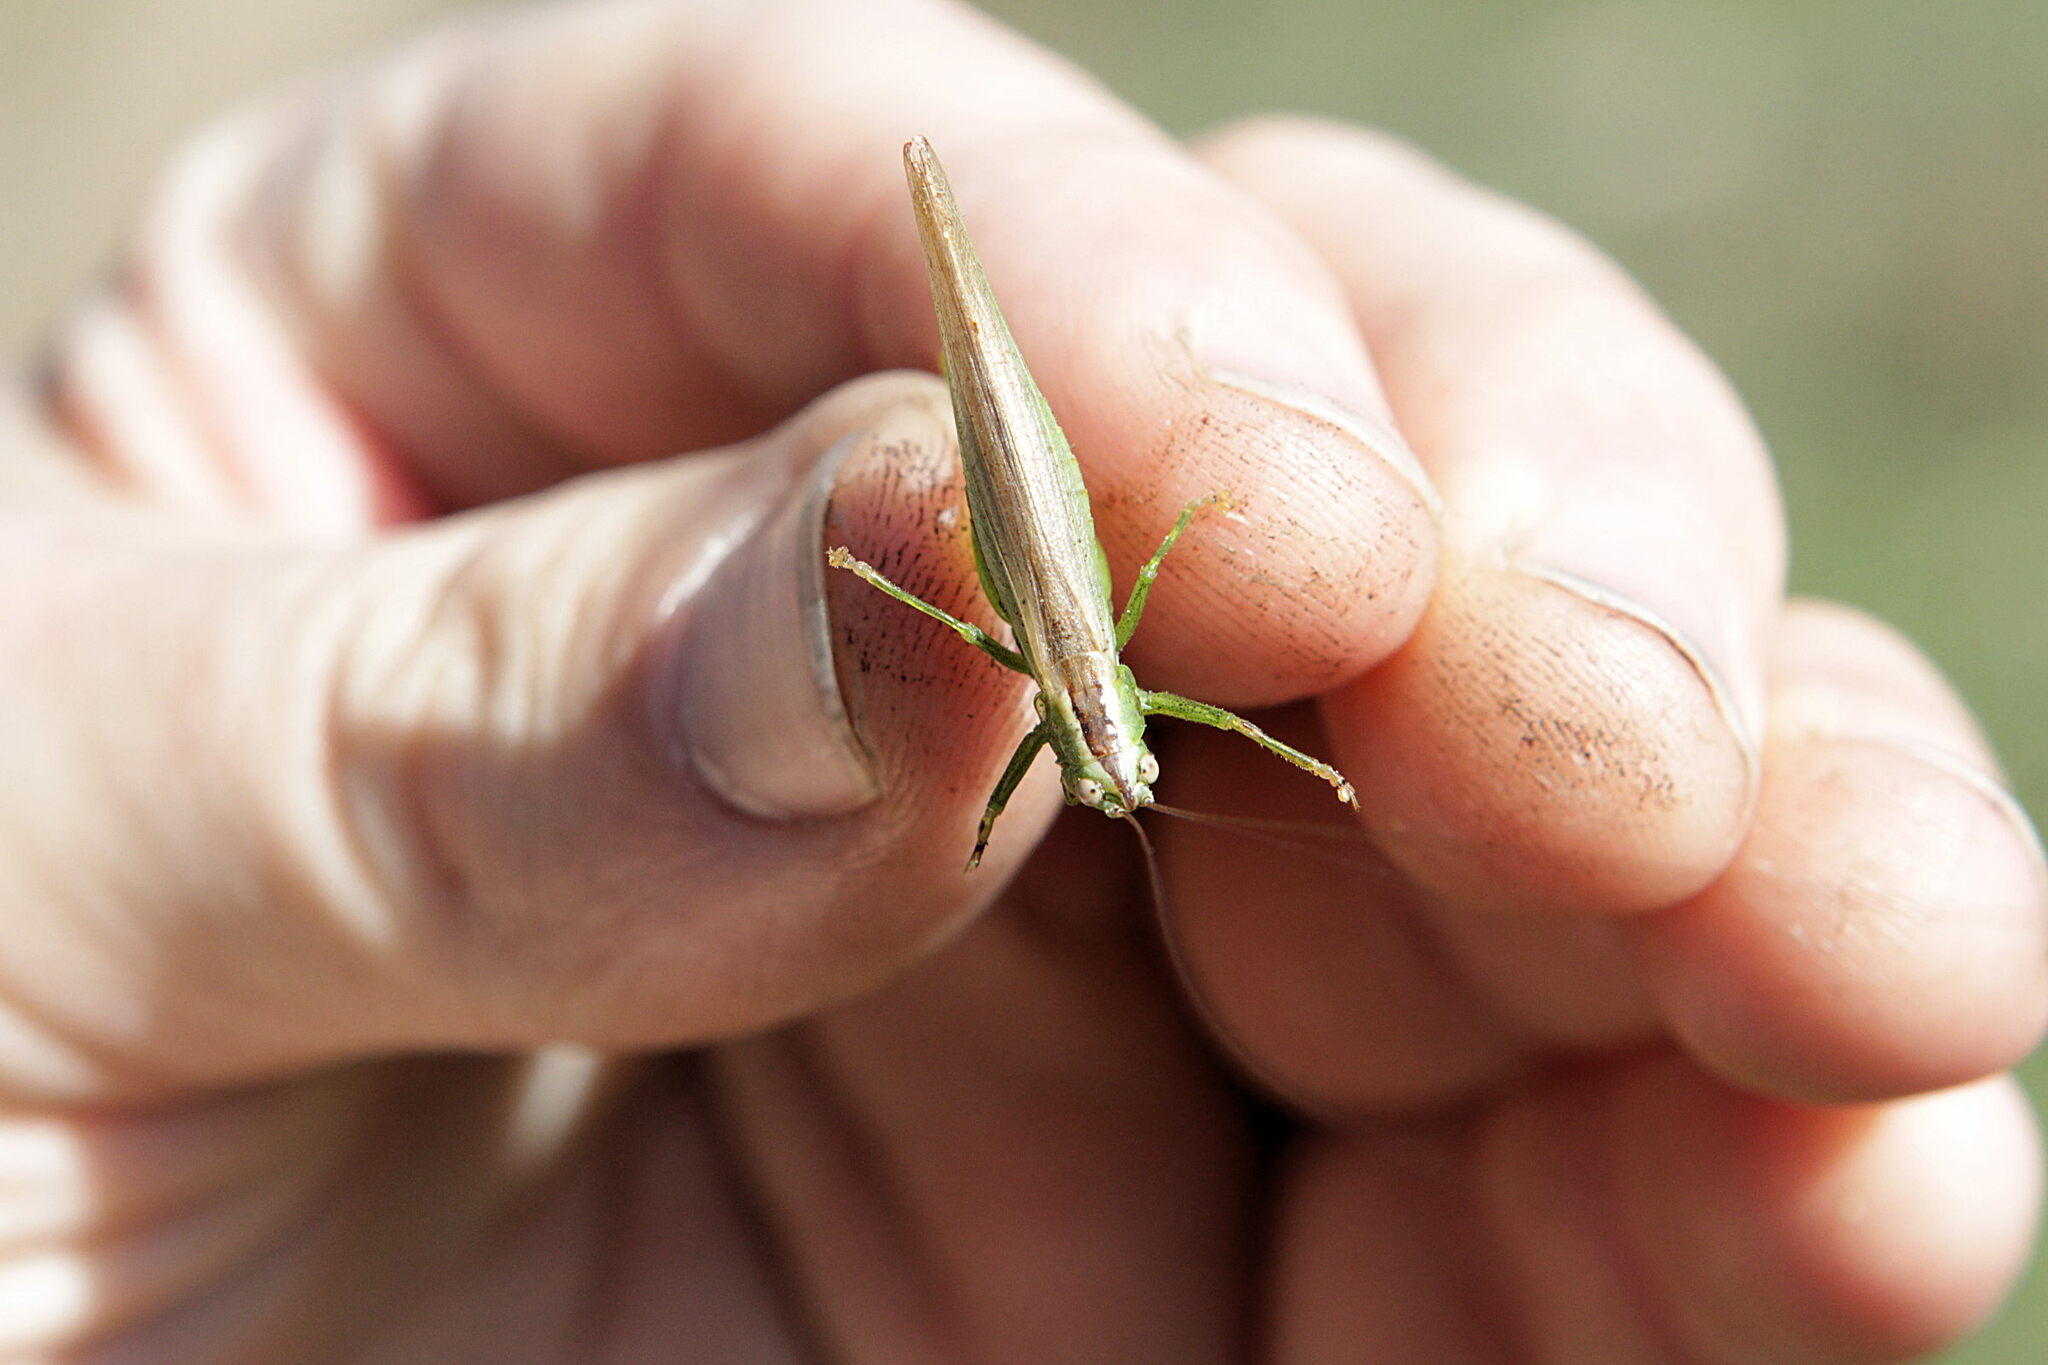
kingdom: Animalia
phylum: Arthropoda
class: Insecta
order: Orthoptera
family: Tettigoniidae
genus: Conocephalus
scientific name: Conocephalus fuscus
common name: Long-winged conehead
